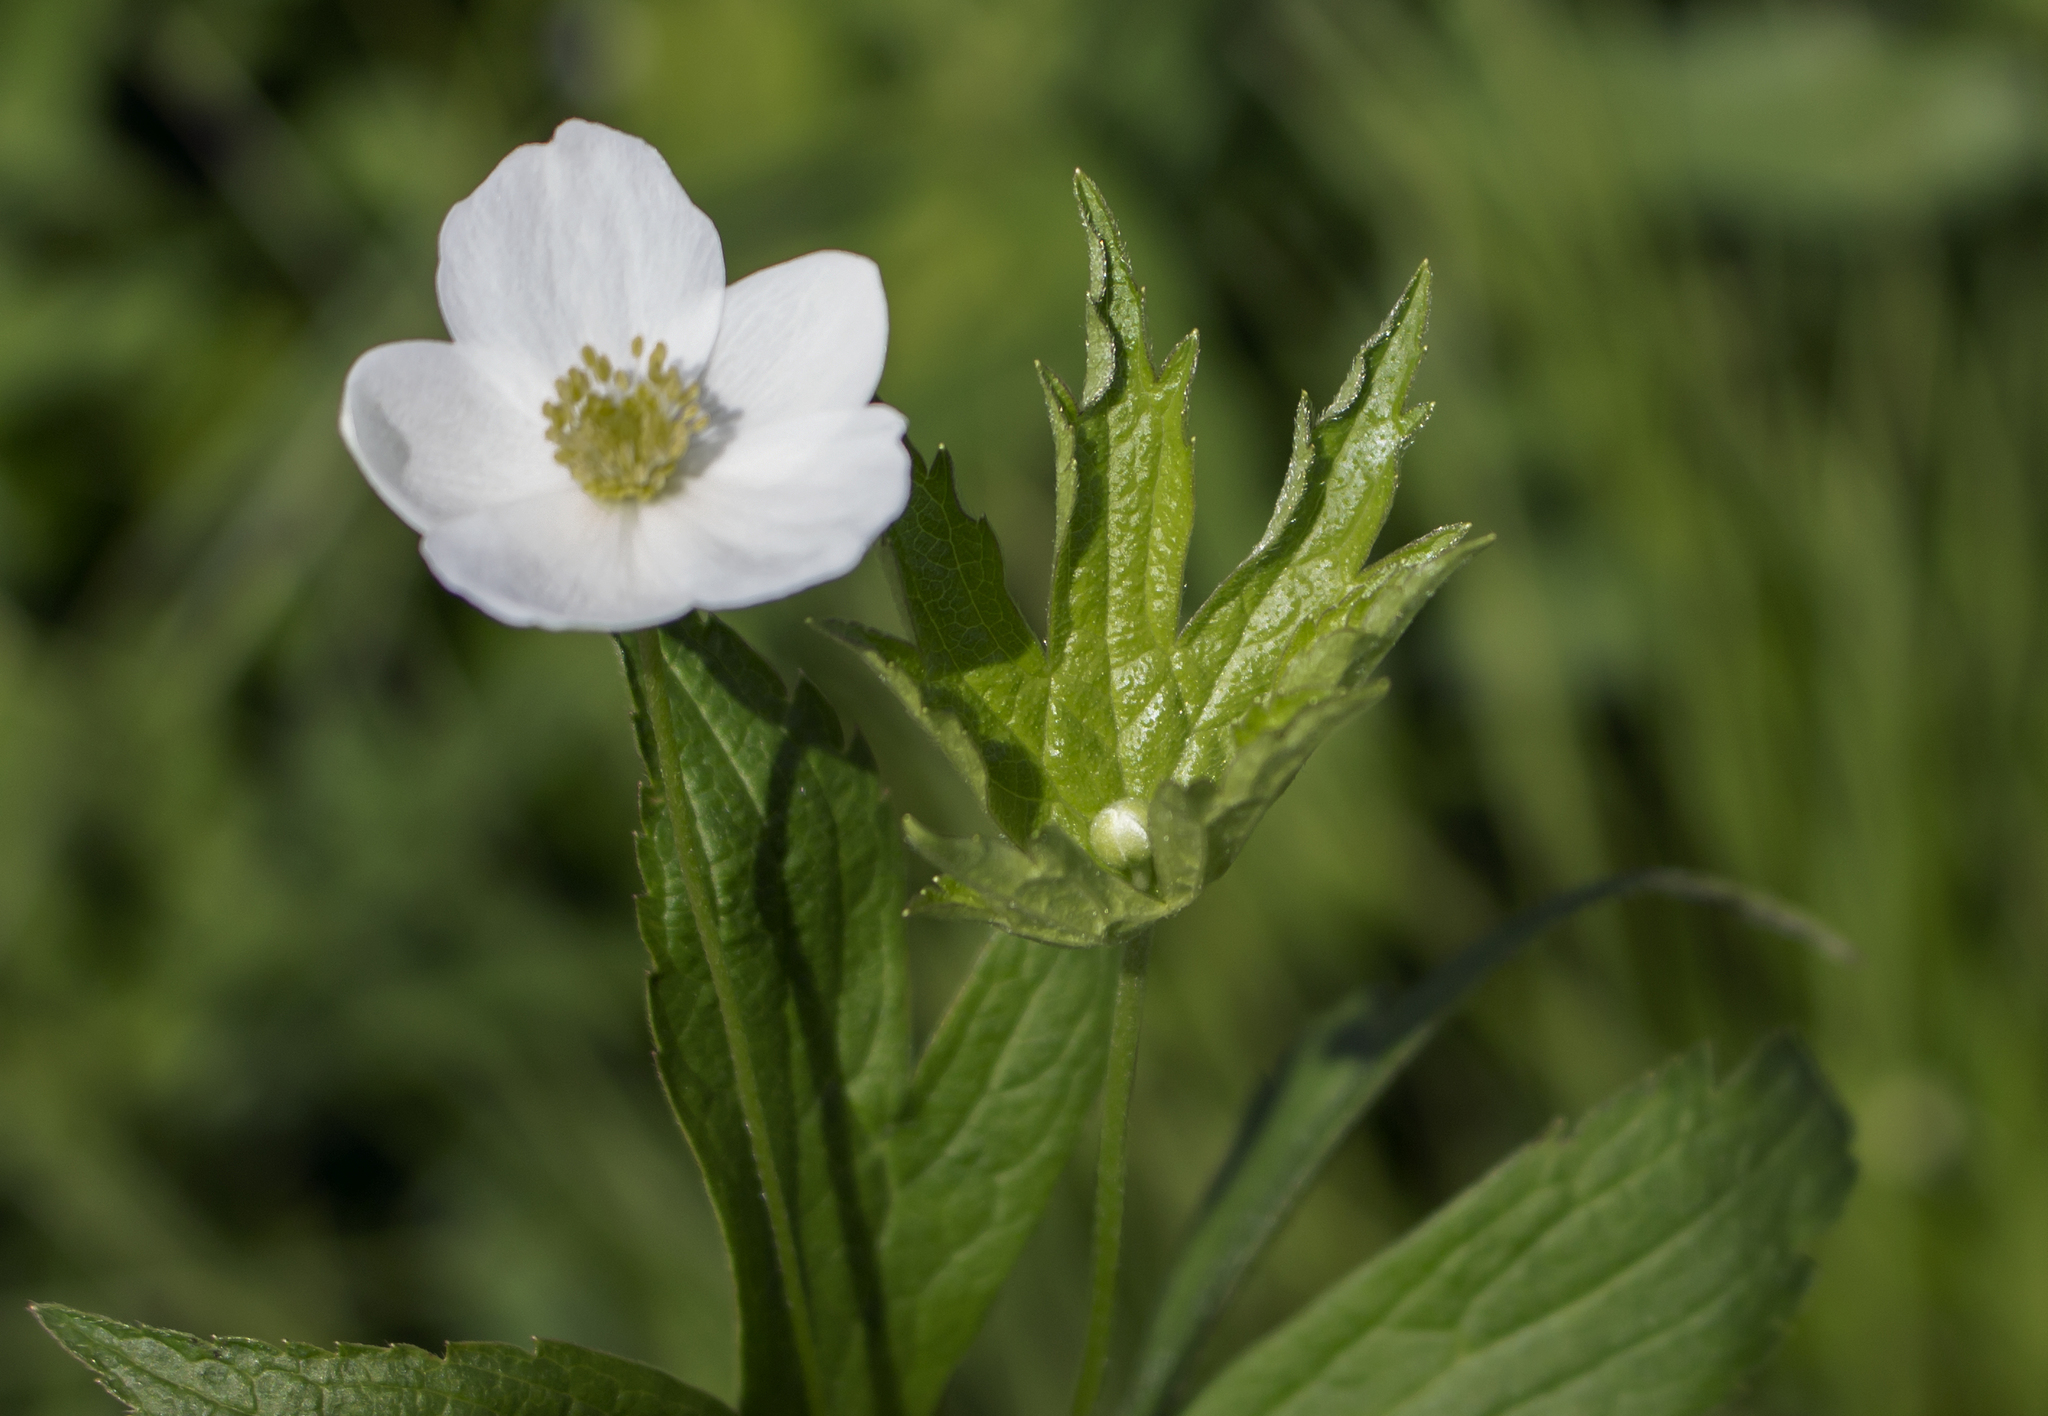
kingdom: Plantae
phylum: Tracheophyta
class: Magnoliopsida
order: Ranunculales
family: Ranunculaceae
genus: Anemonastrum
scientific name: Anemonastrum canadense
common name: Canada anemone
